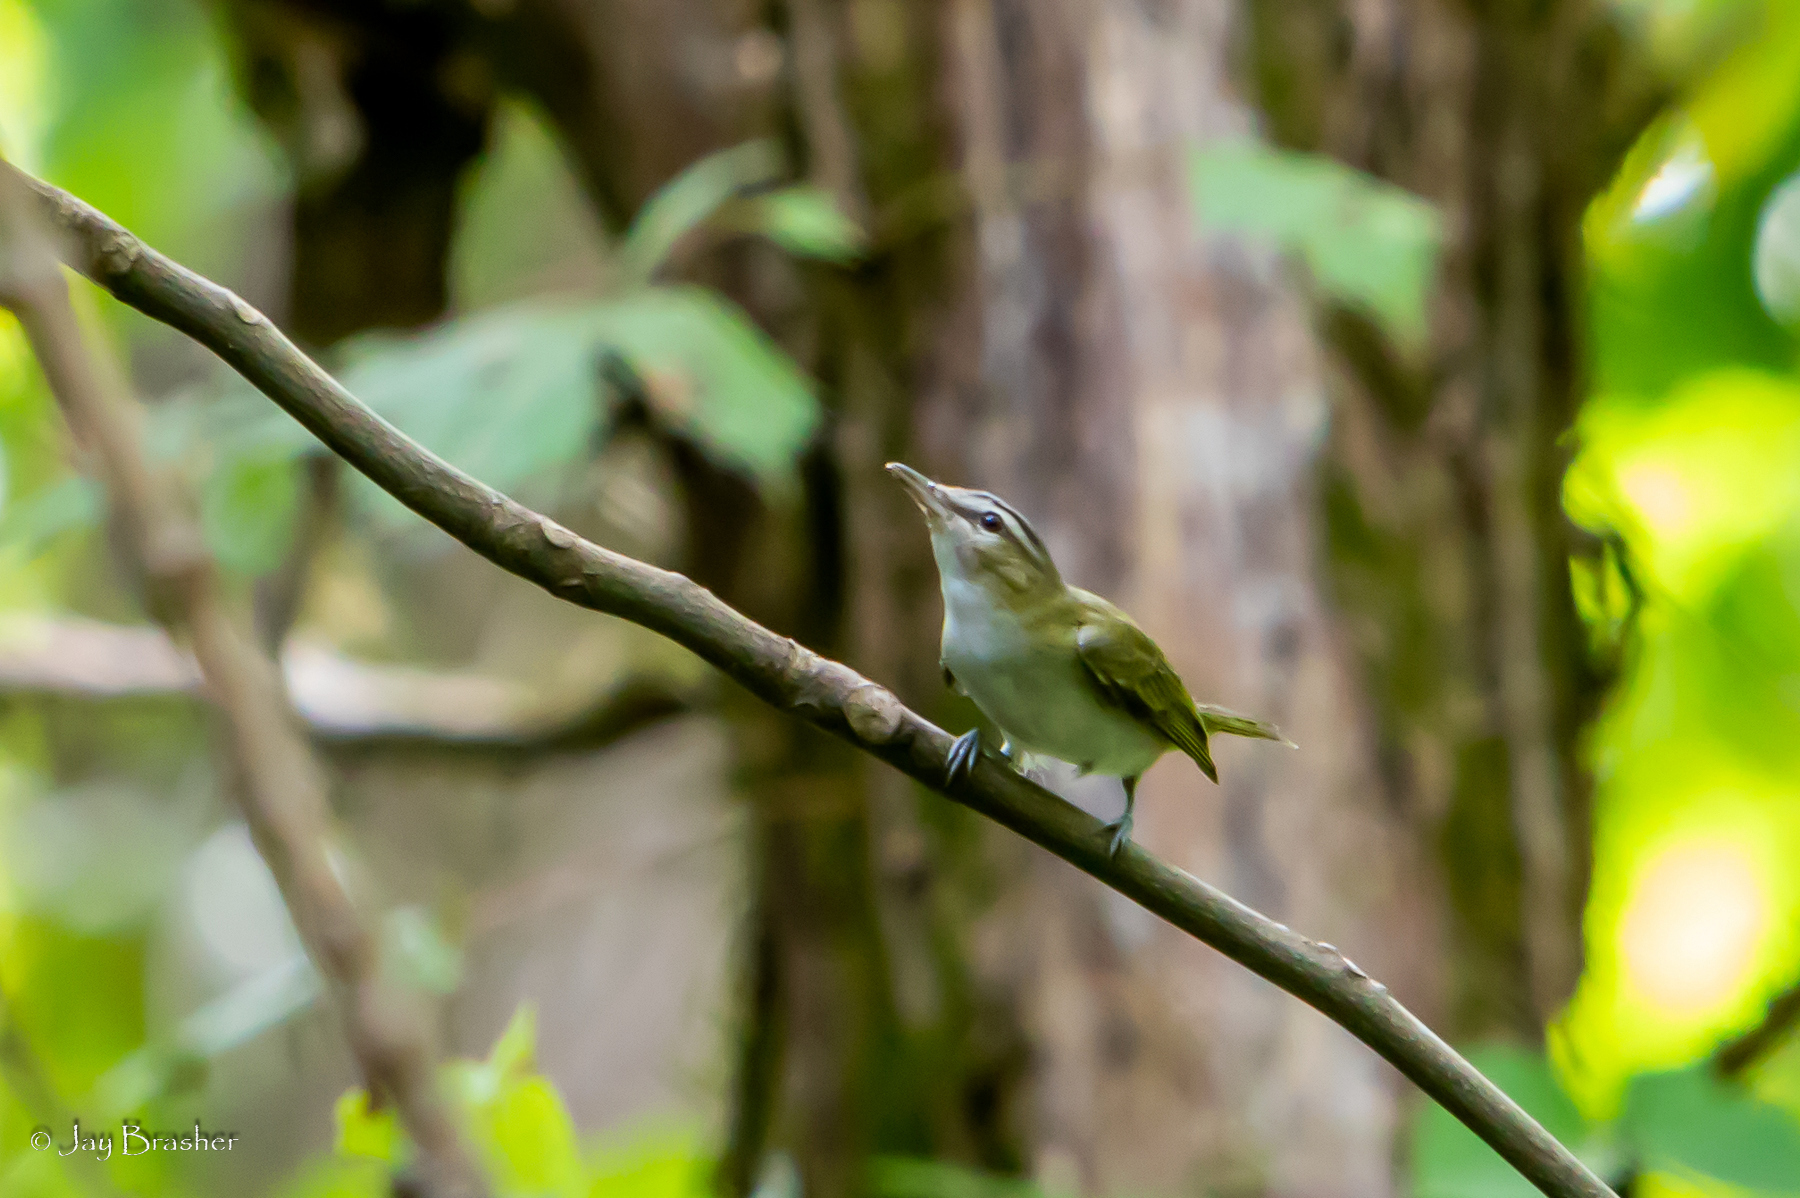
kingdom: Animalia
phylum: Chordata
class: Aves
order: Passeriformes
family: Vireonidae
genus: Vireo
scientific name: Vireo olivaceus
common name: Red-eyed vireo
